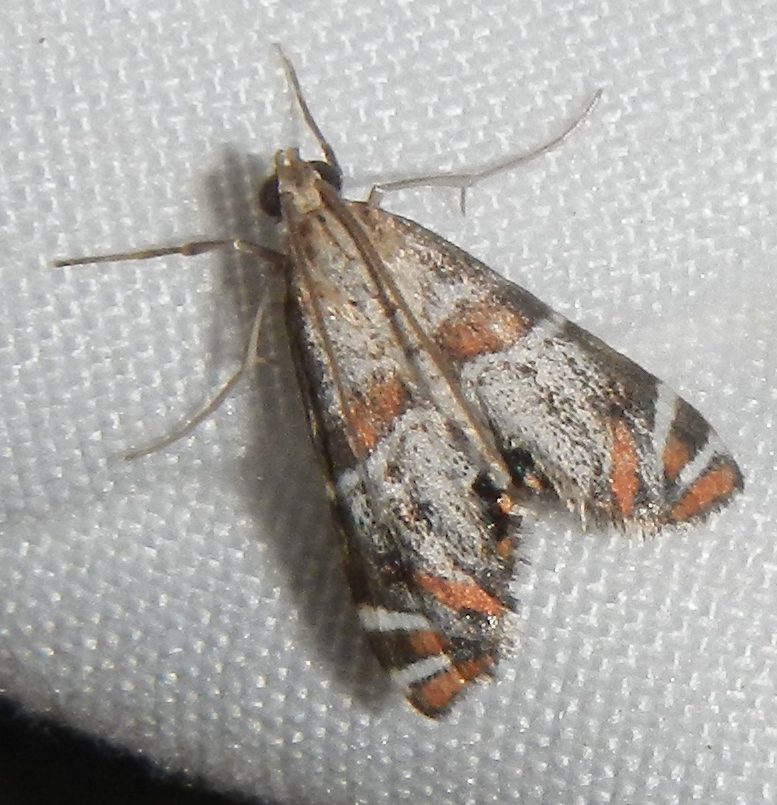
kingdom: Animalia
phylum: Arthropoda
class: Insecta
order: Lepidoptera
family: Crambidae
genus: Petrophila
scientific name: Petrophila jaliscalis
